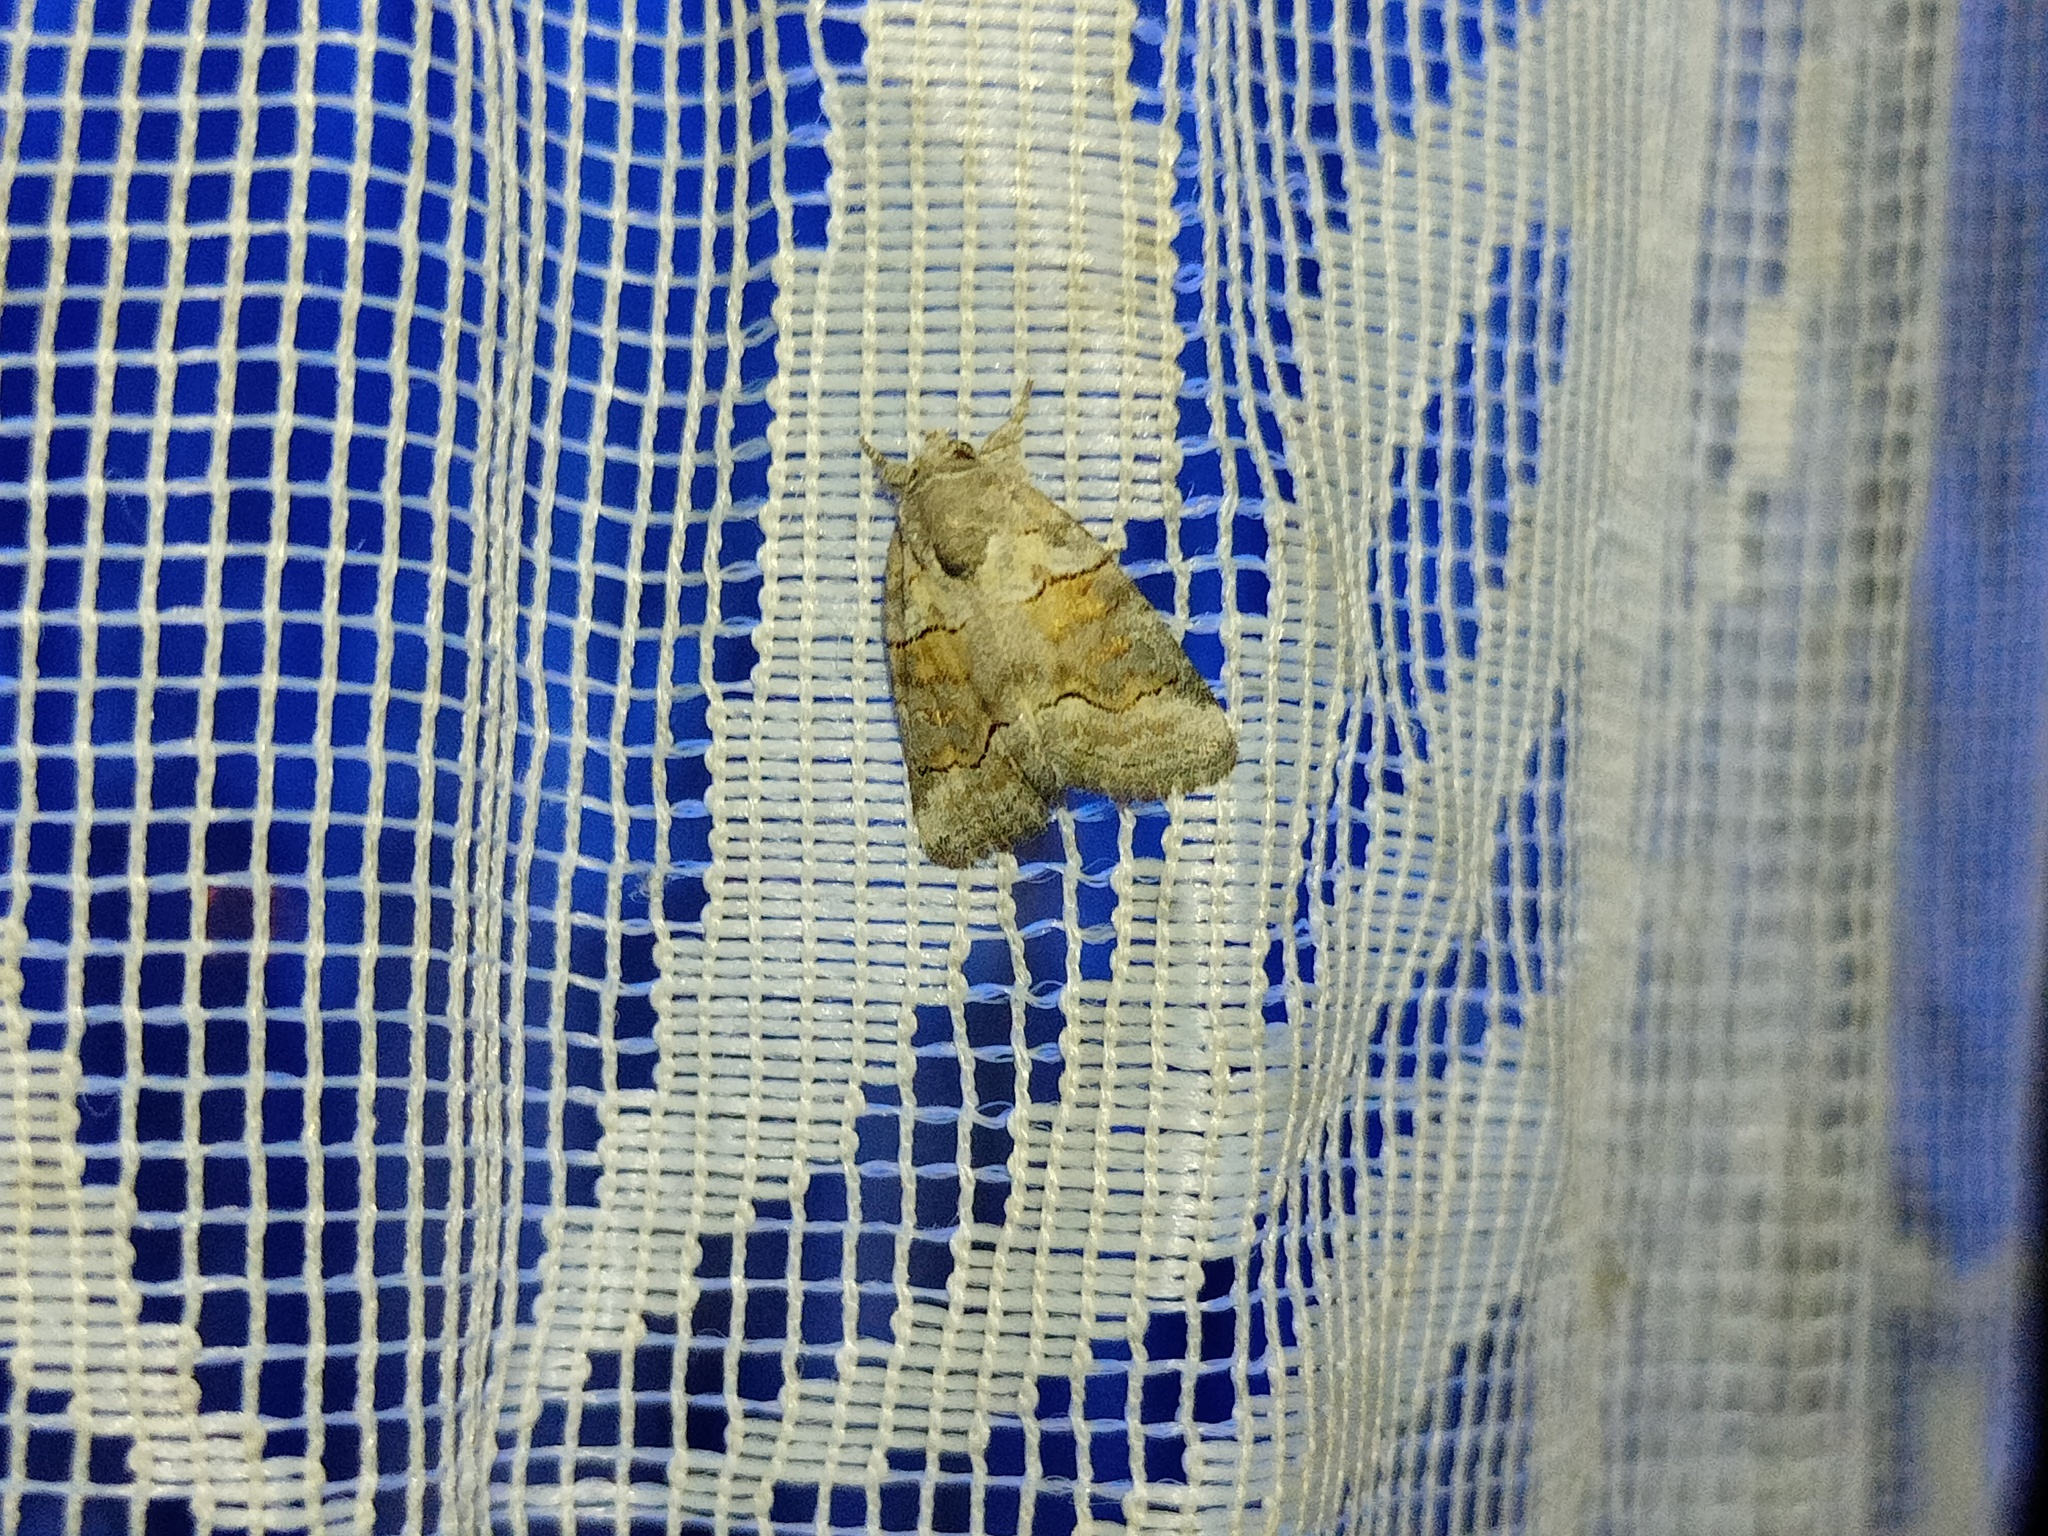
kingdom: Animalia
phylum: Arthropoda
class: Insecta
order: Lepidoptera
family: Noctuidae
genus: Bryophila
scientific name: Bryophila microphysa
